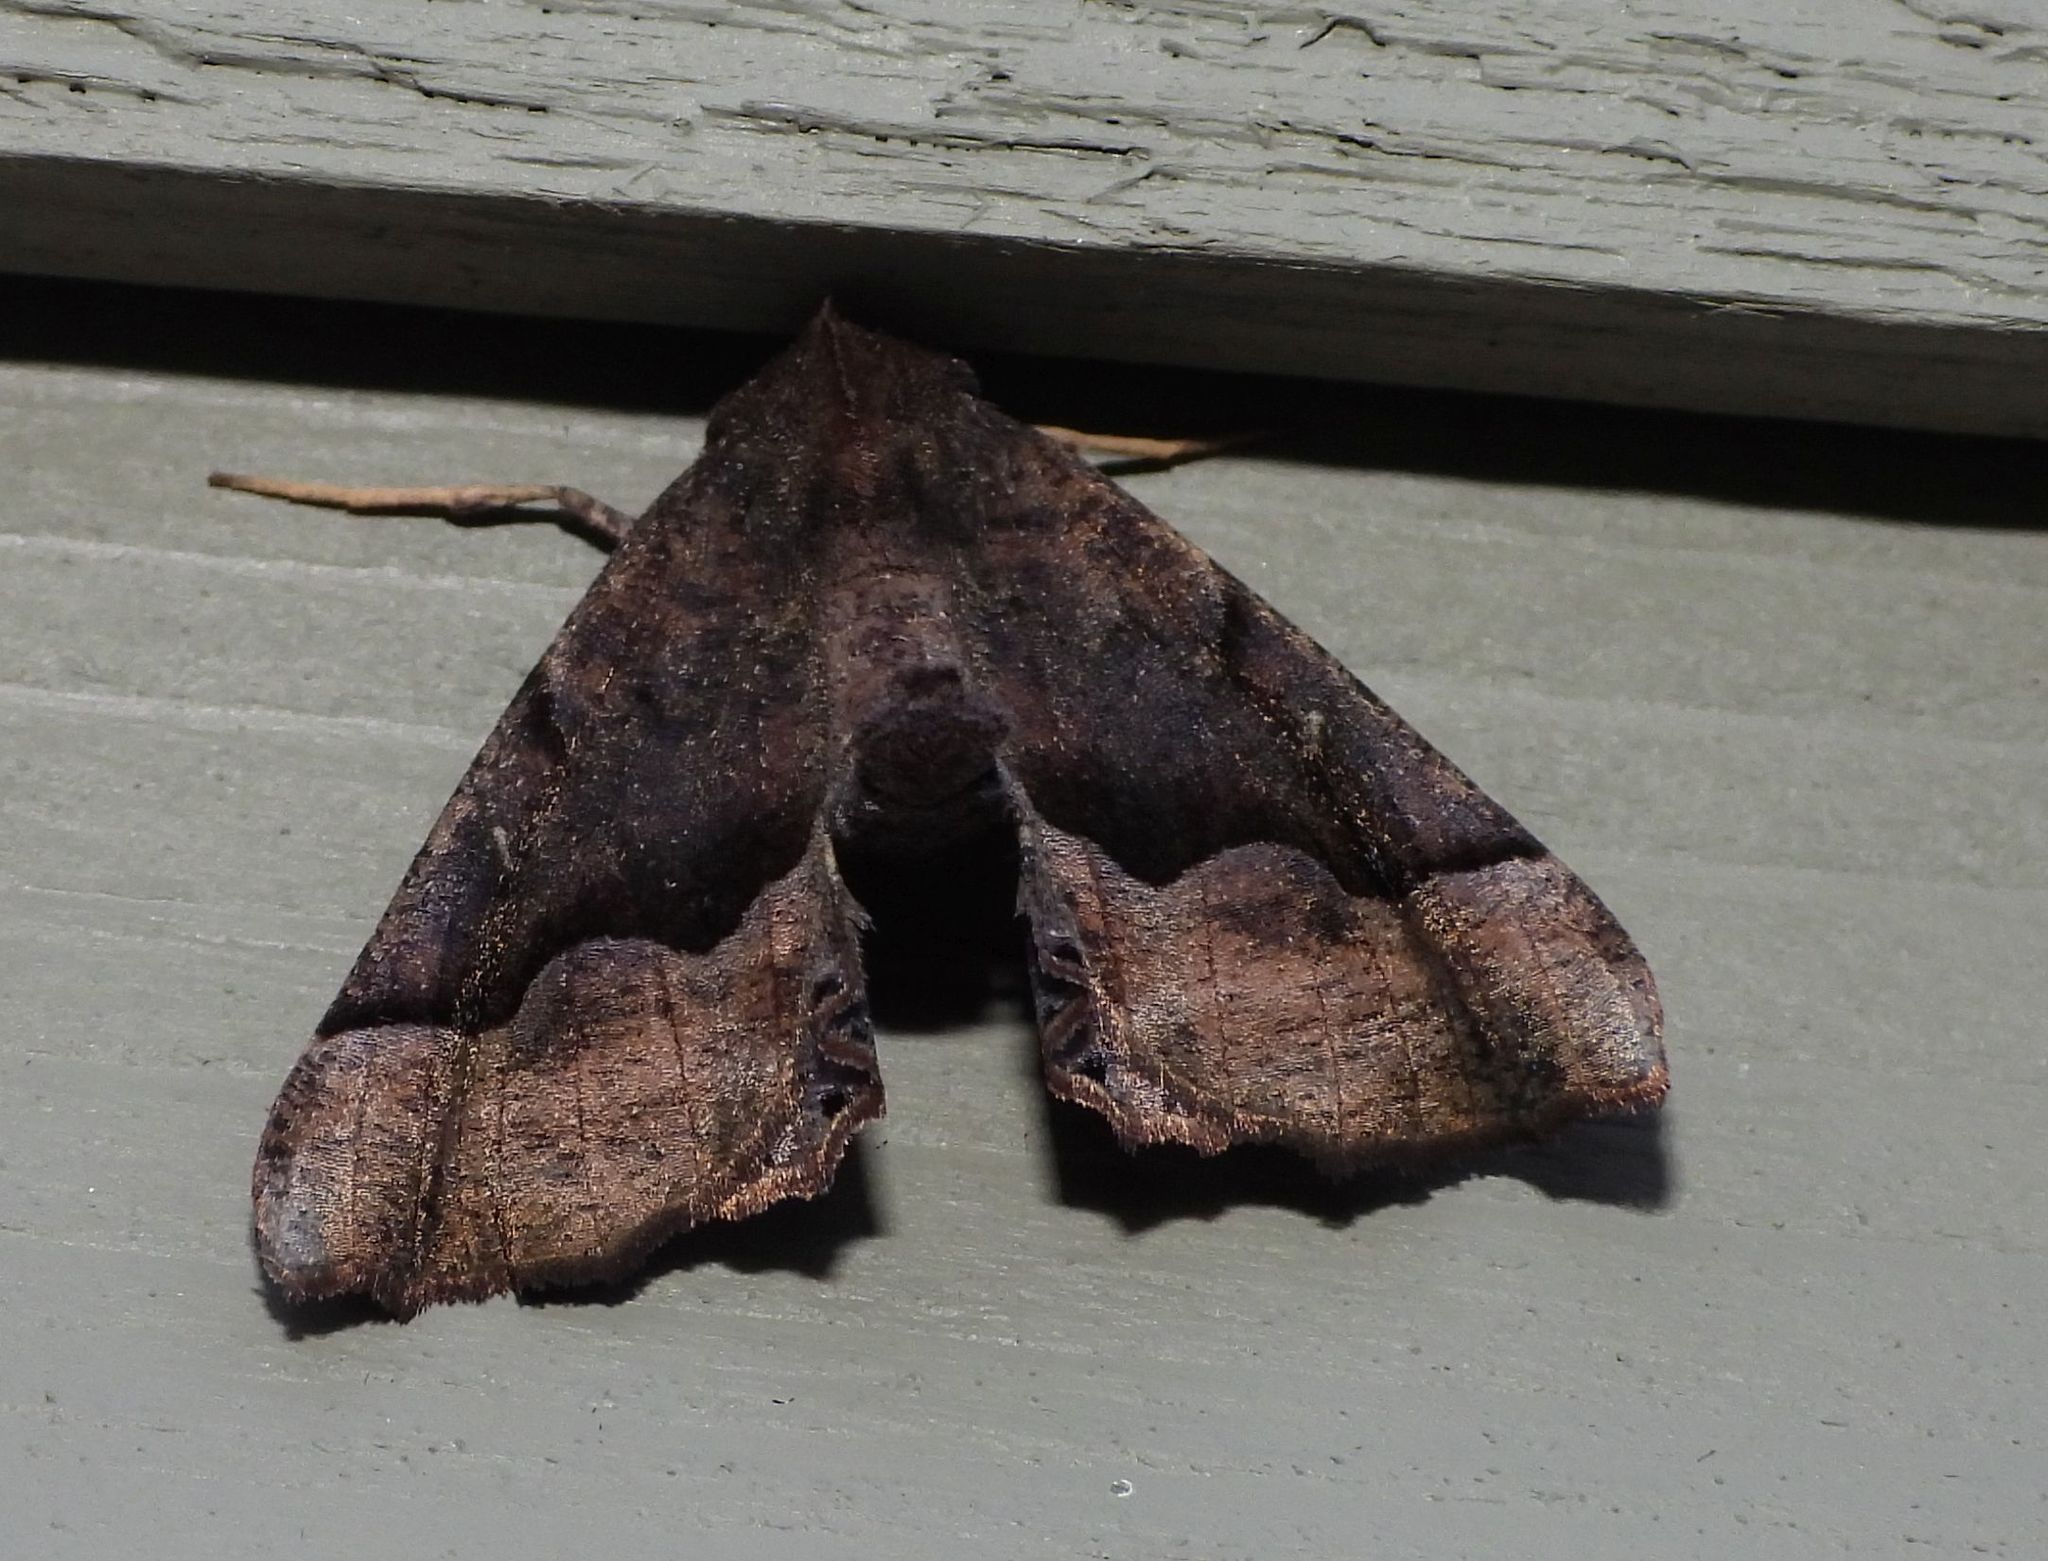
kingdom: Animalia
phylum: Arthropoda
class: Insecta
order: Lepidoptera
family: Geometridae
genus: Pero
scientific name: Pero honestaria
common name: Honest pero
